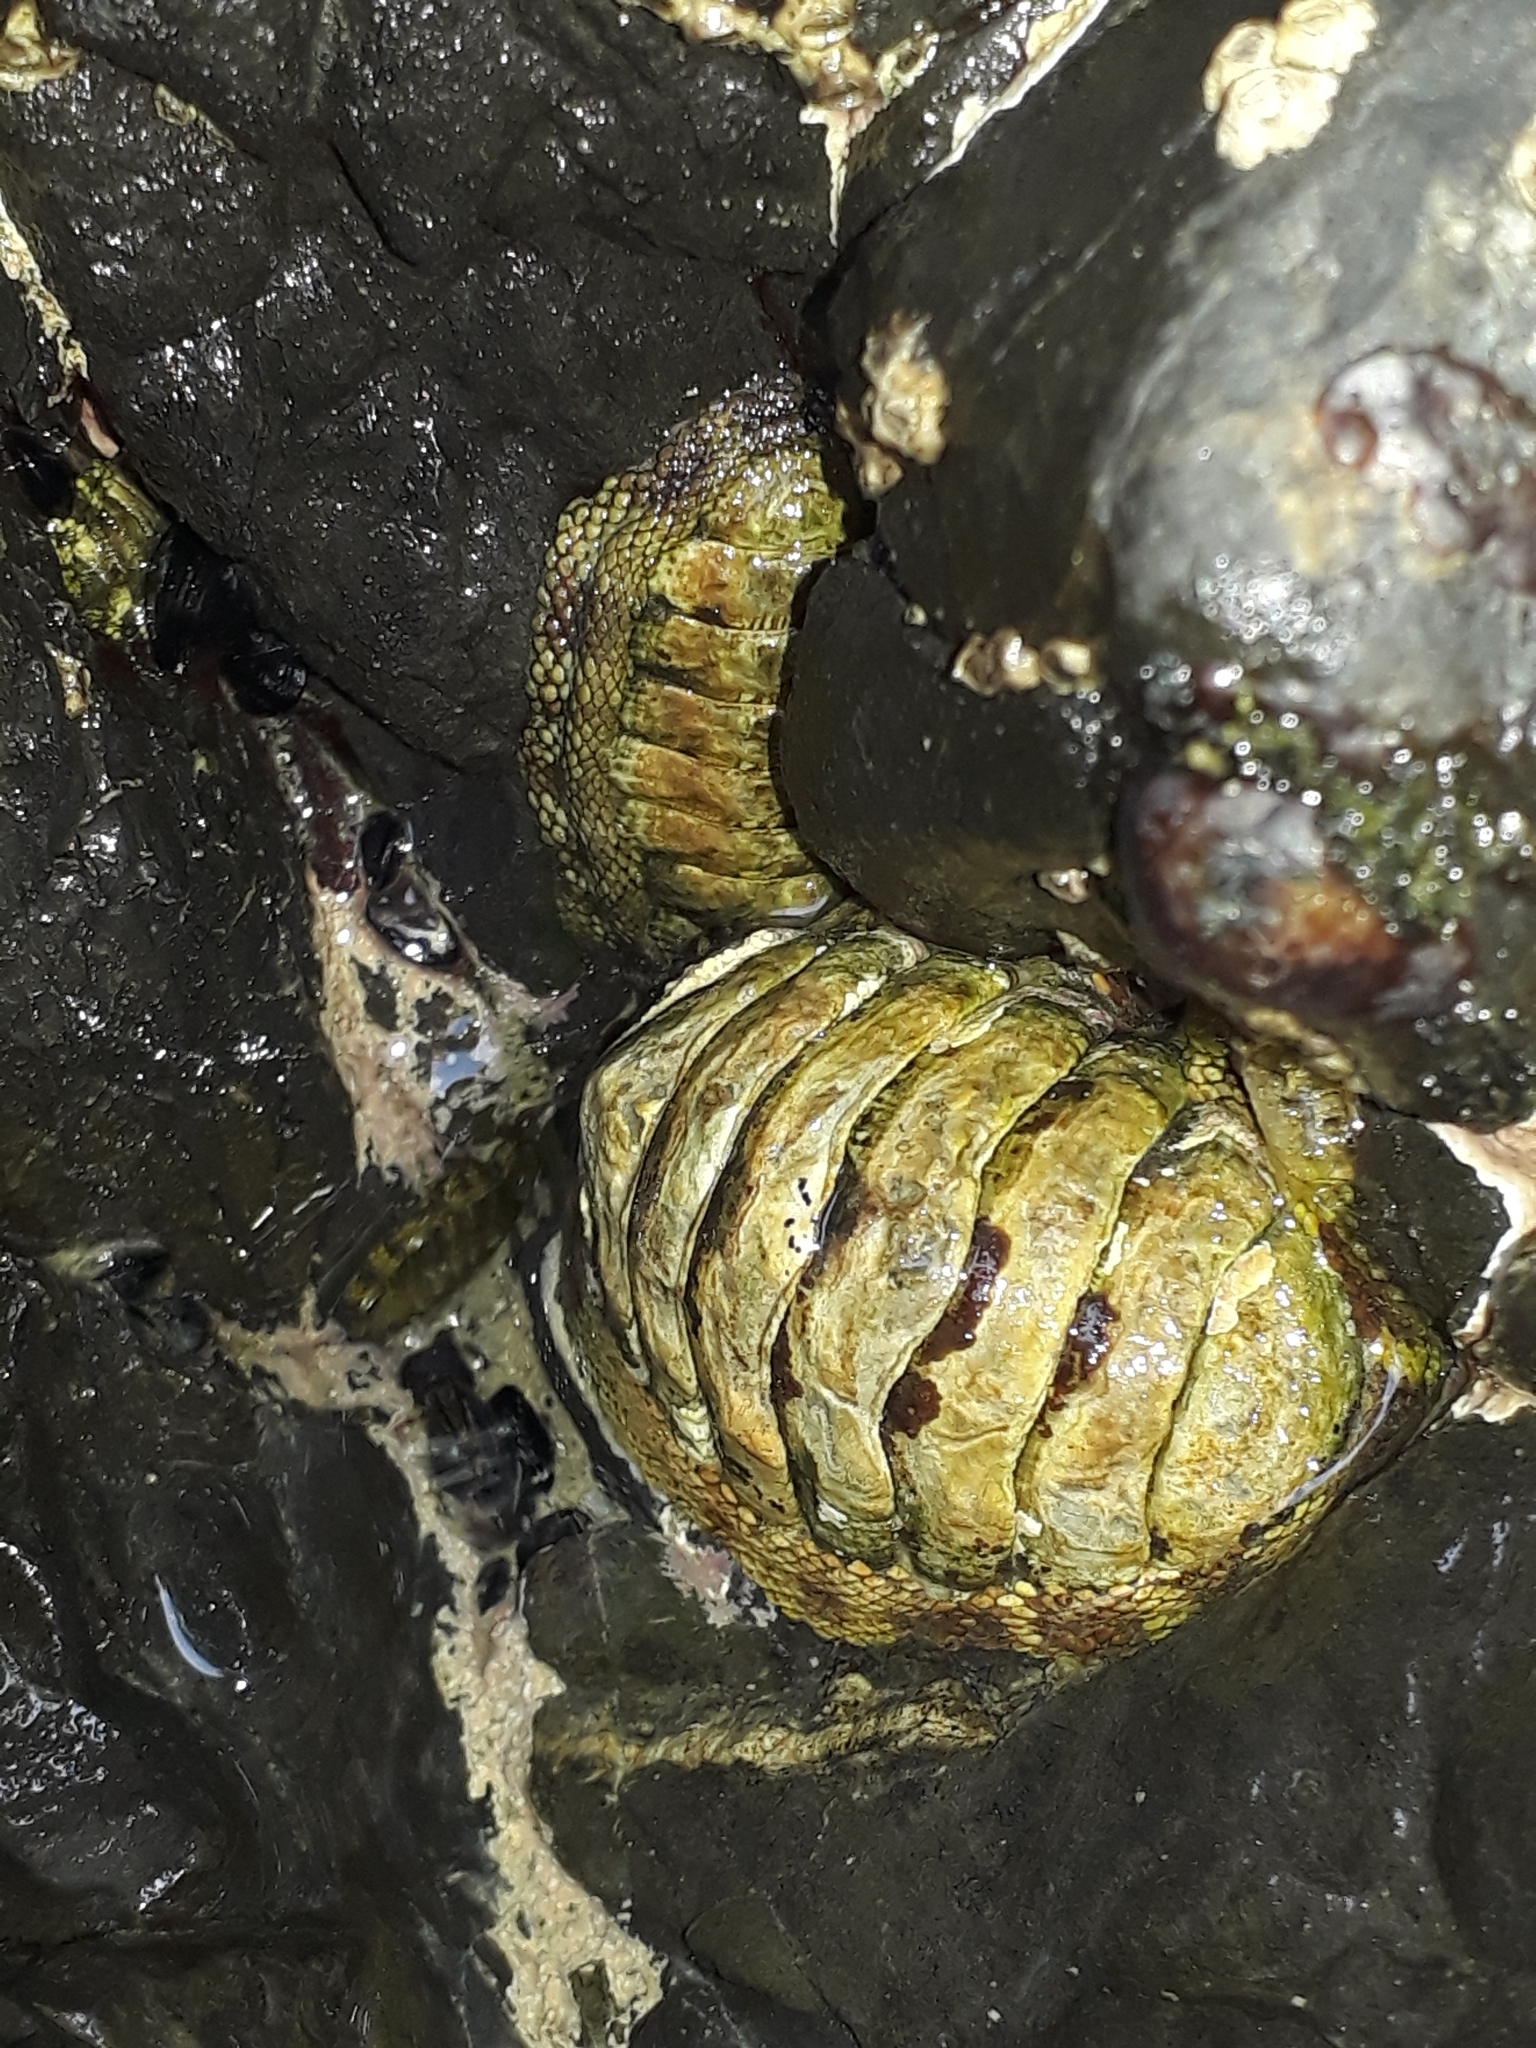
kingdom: Animalia
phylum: Mollusca
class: Polyplacophora
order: Chitonida
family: Chitonidae
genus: Sypharochiton
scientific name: Sypharochiton pelliserpentis
